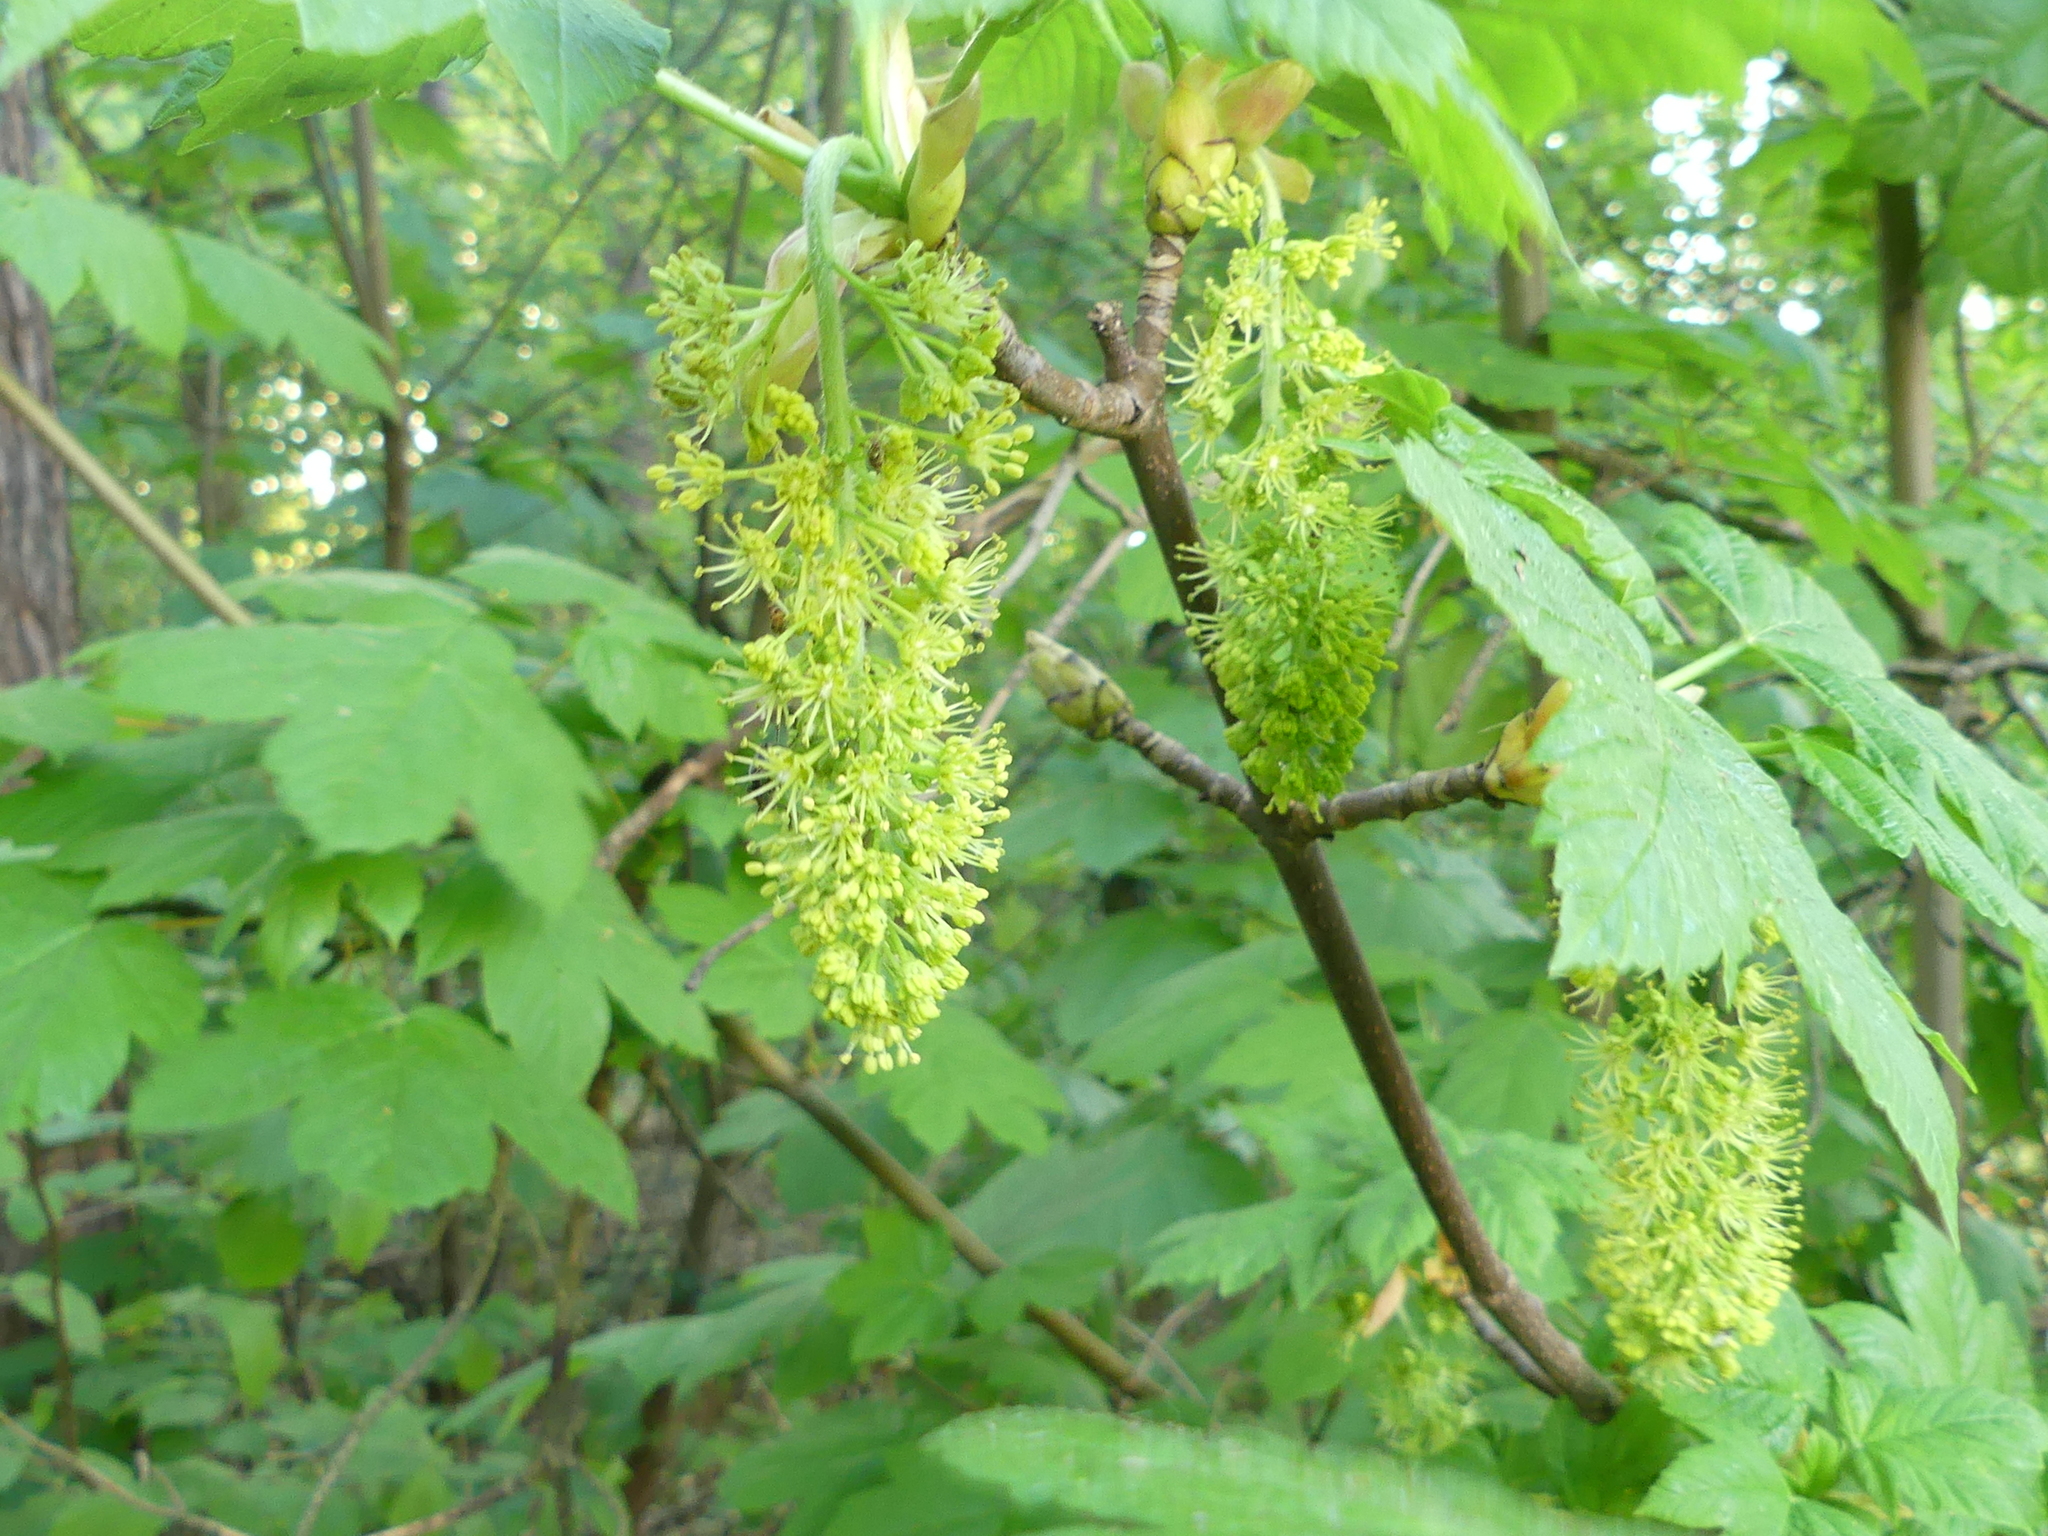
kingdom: Plantae
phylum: Tracheophyta
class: Magnoliopsida
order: Sapindales
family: Sapindaceae
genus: Acer
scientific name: Acer pseudoplatanus
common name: Sycamore
